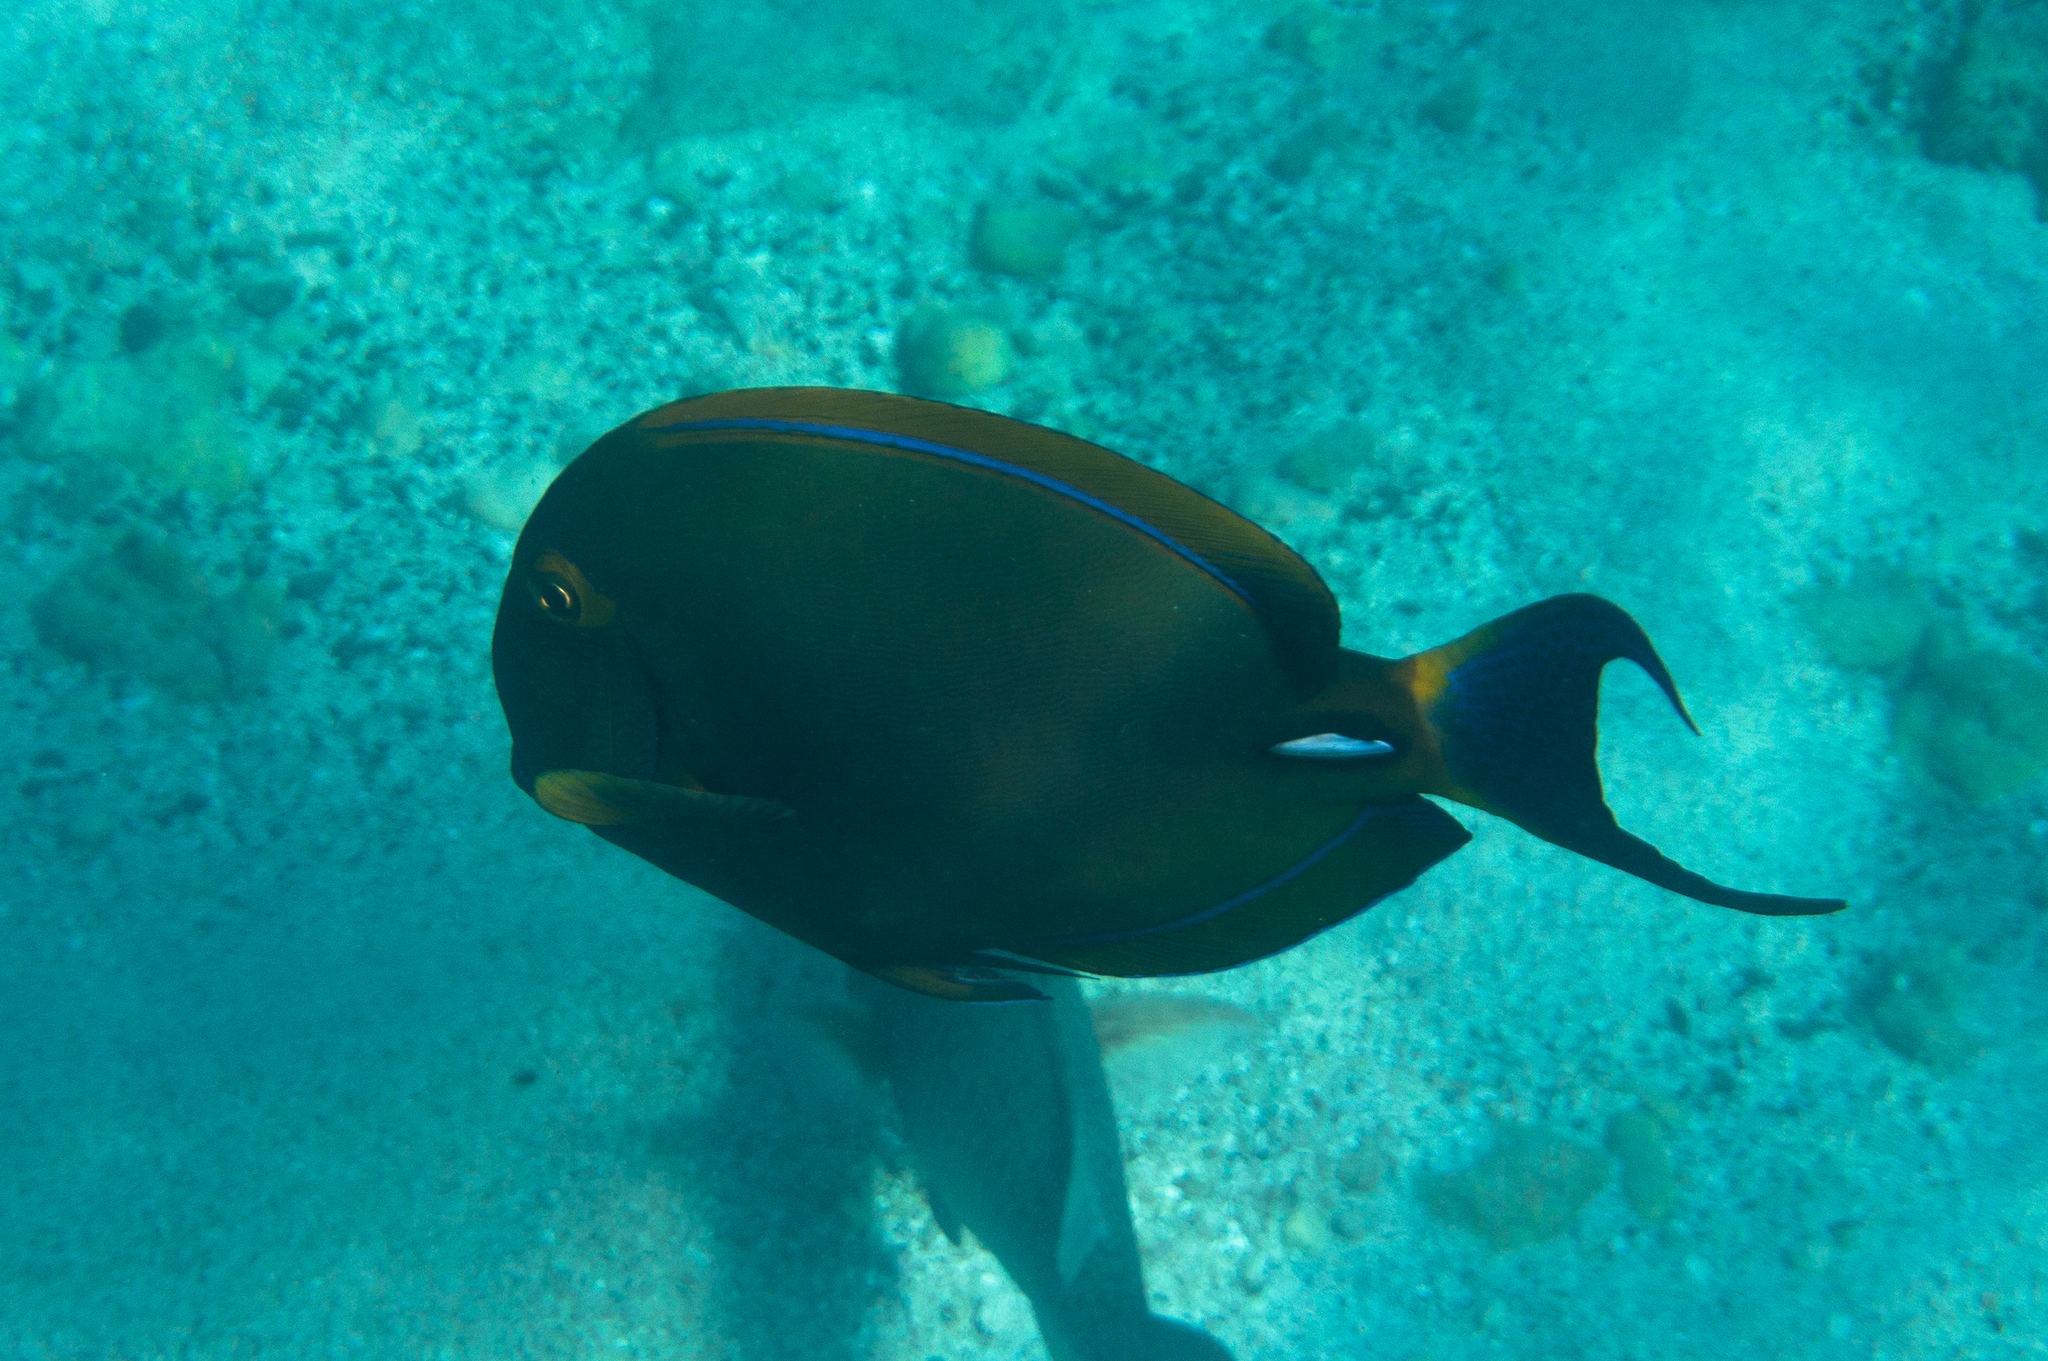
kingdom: Animalia
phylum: Chordata
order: Perciformes
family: Acanthuridae
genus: Acanthurus
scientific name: Acanthurus dussumieri
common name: Dussumier's surgeonfish
